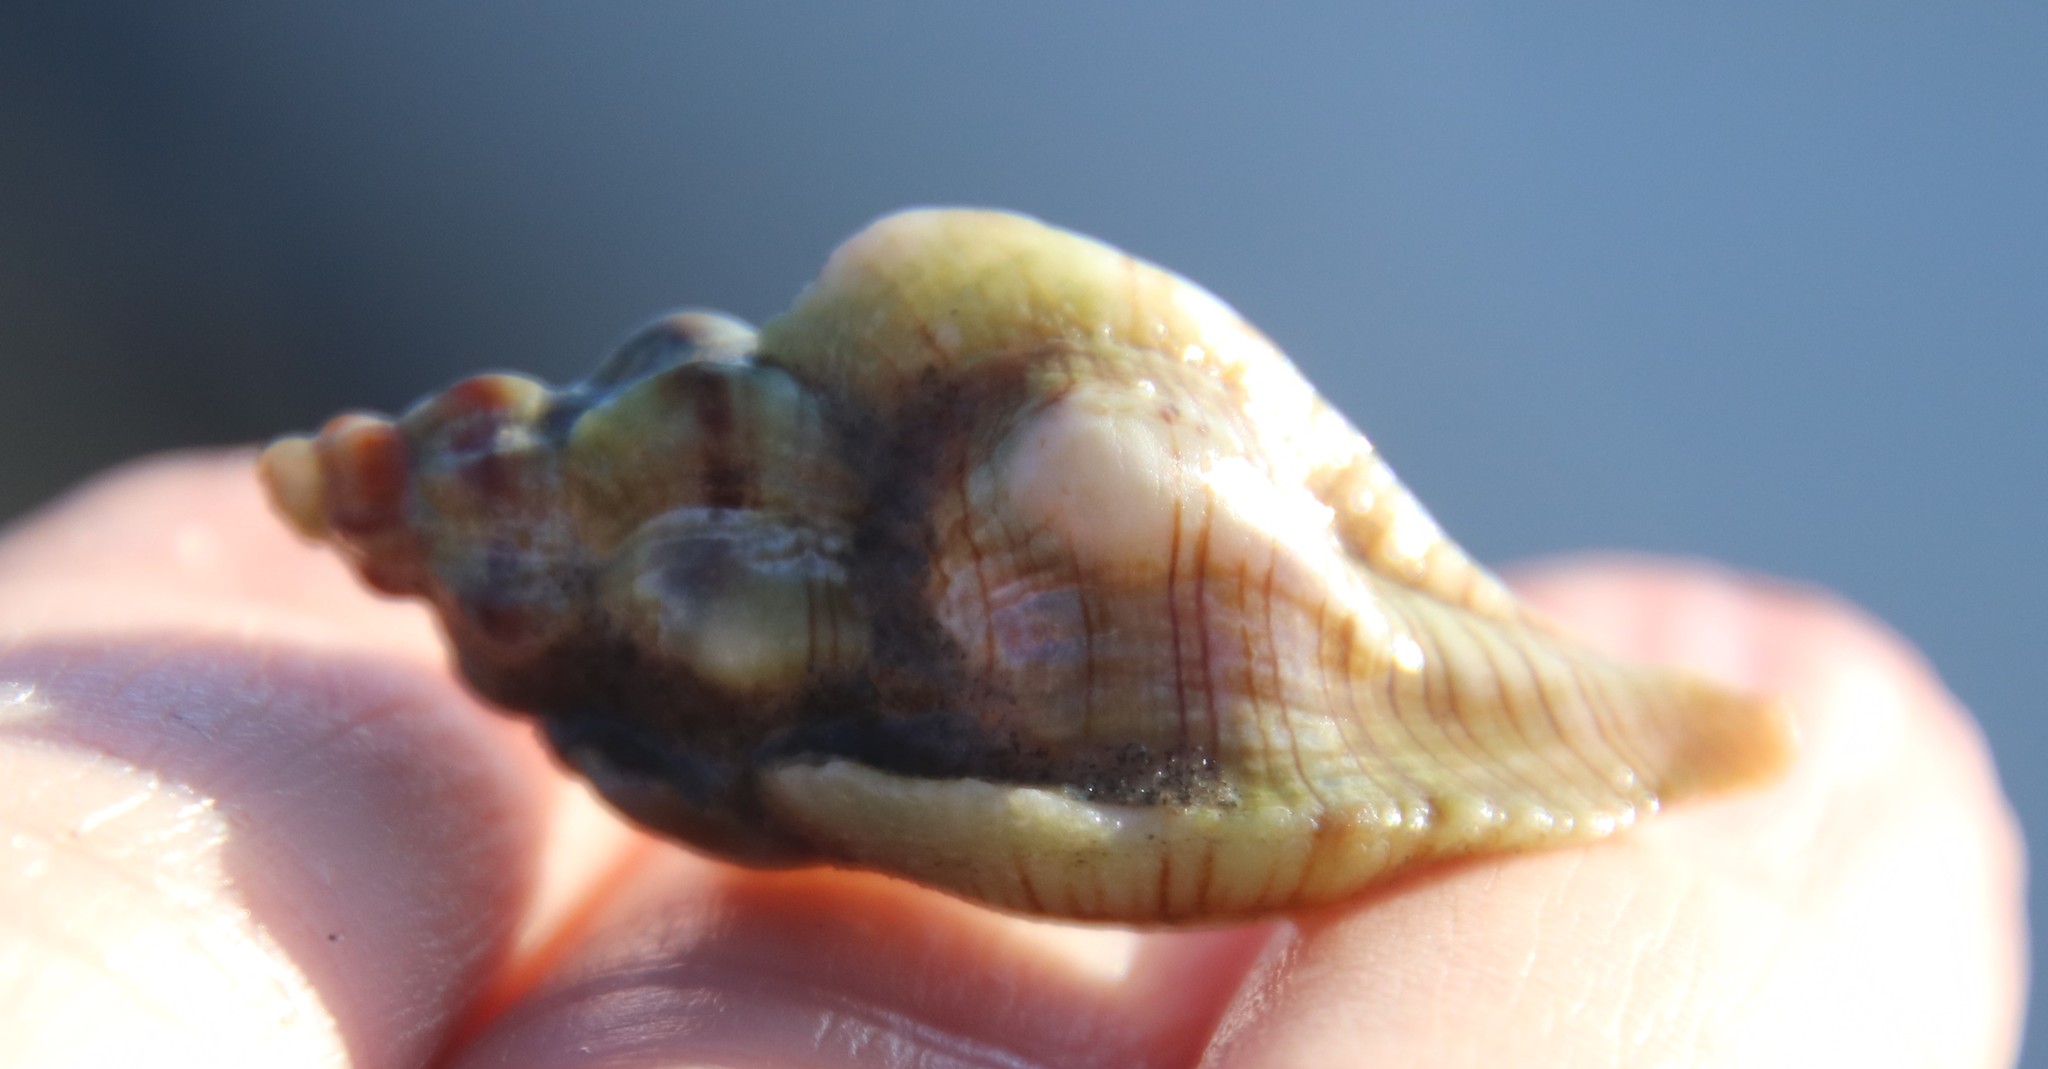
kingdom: Animalia
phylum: Mollusca
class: Gastropoda
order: Neogastropoda
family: Muricidae
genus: Pteropurpura
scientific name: Pteropurpura festiva
